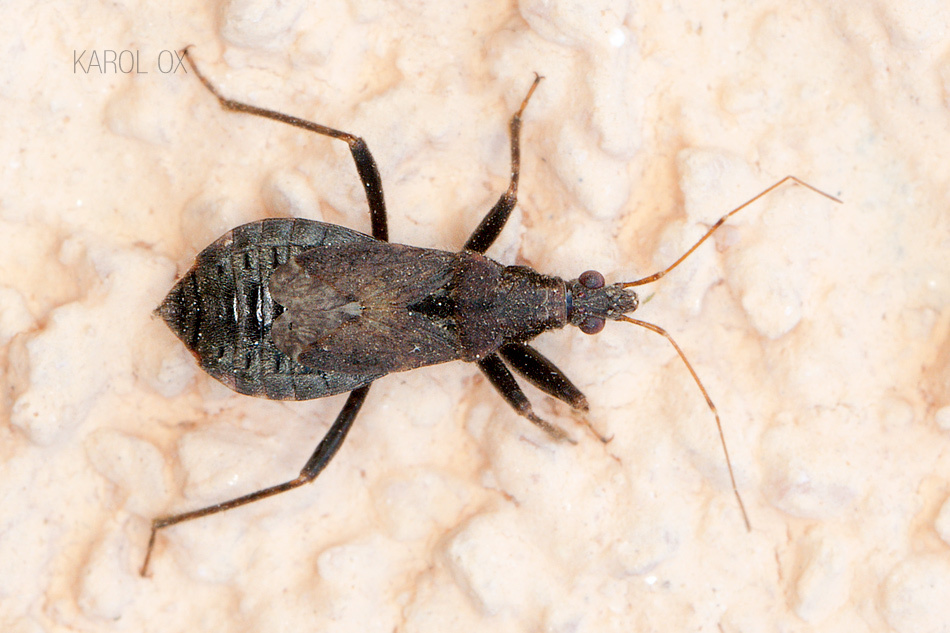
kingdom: Animalia
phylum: Arthropoda
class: Insecta
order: Hemiptera
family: Nabidae
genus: Himacerus
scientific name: Himacerus mirmicoides
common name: Ant damsel bug
